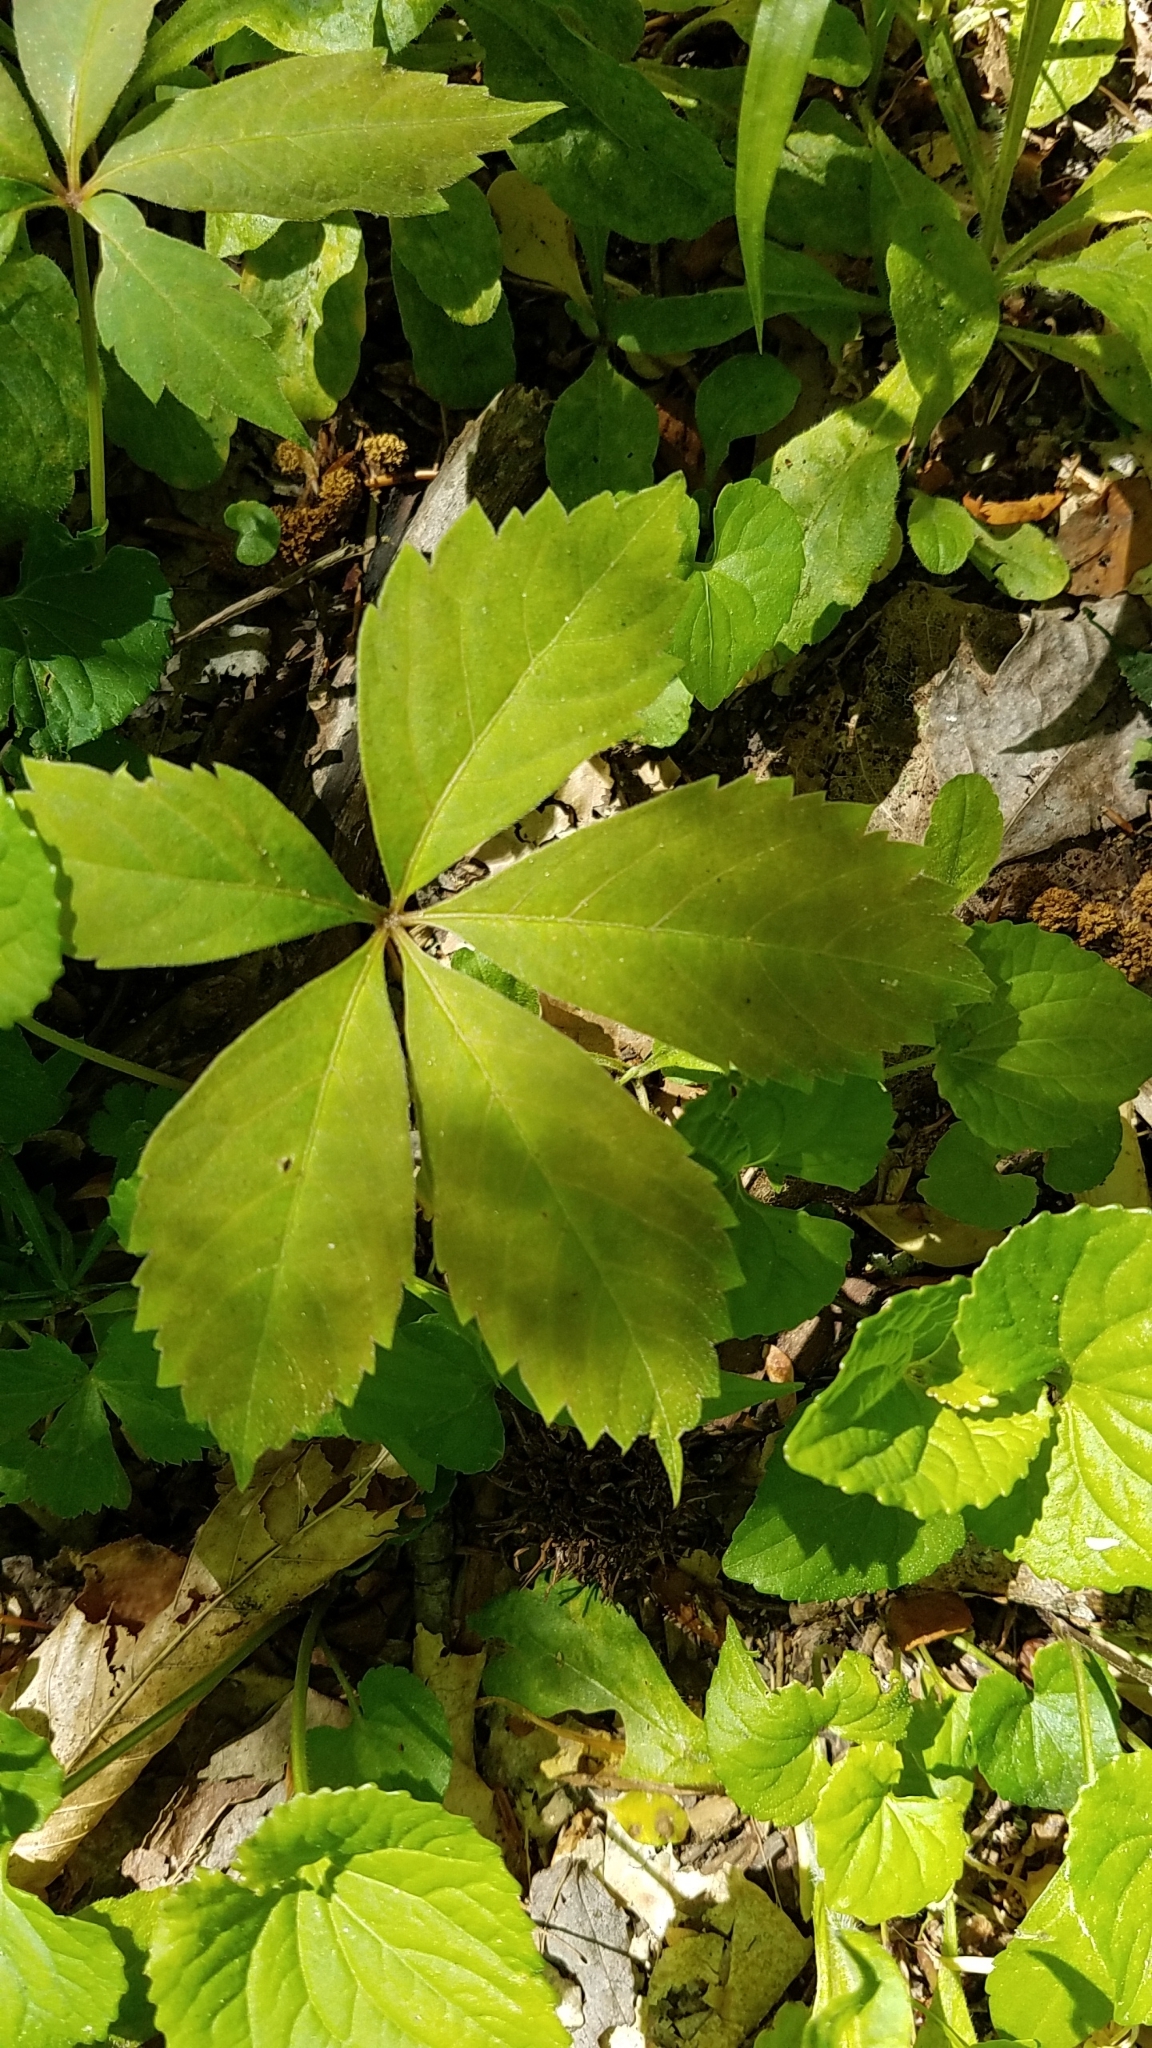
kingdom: Plantae
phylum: Tracheophyta
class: Magnoliopsida
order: Vitales
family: Vitaceae
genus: Parthenocissus
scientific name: Parthenocissus quinquefolia
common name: Virginia-creeper
